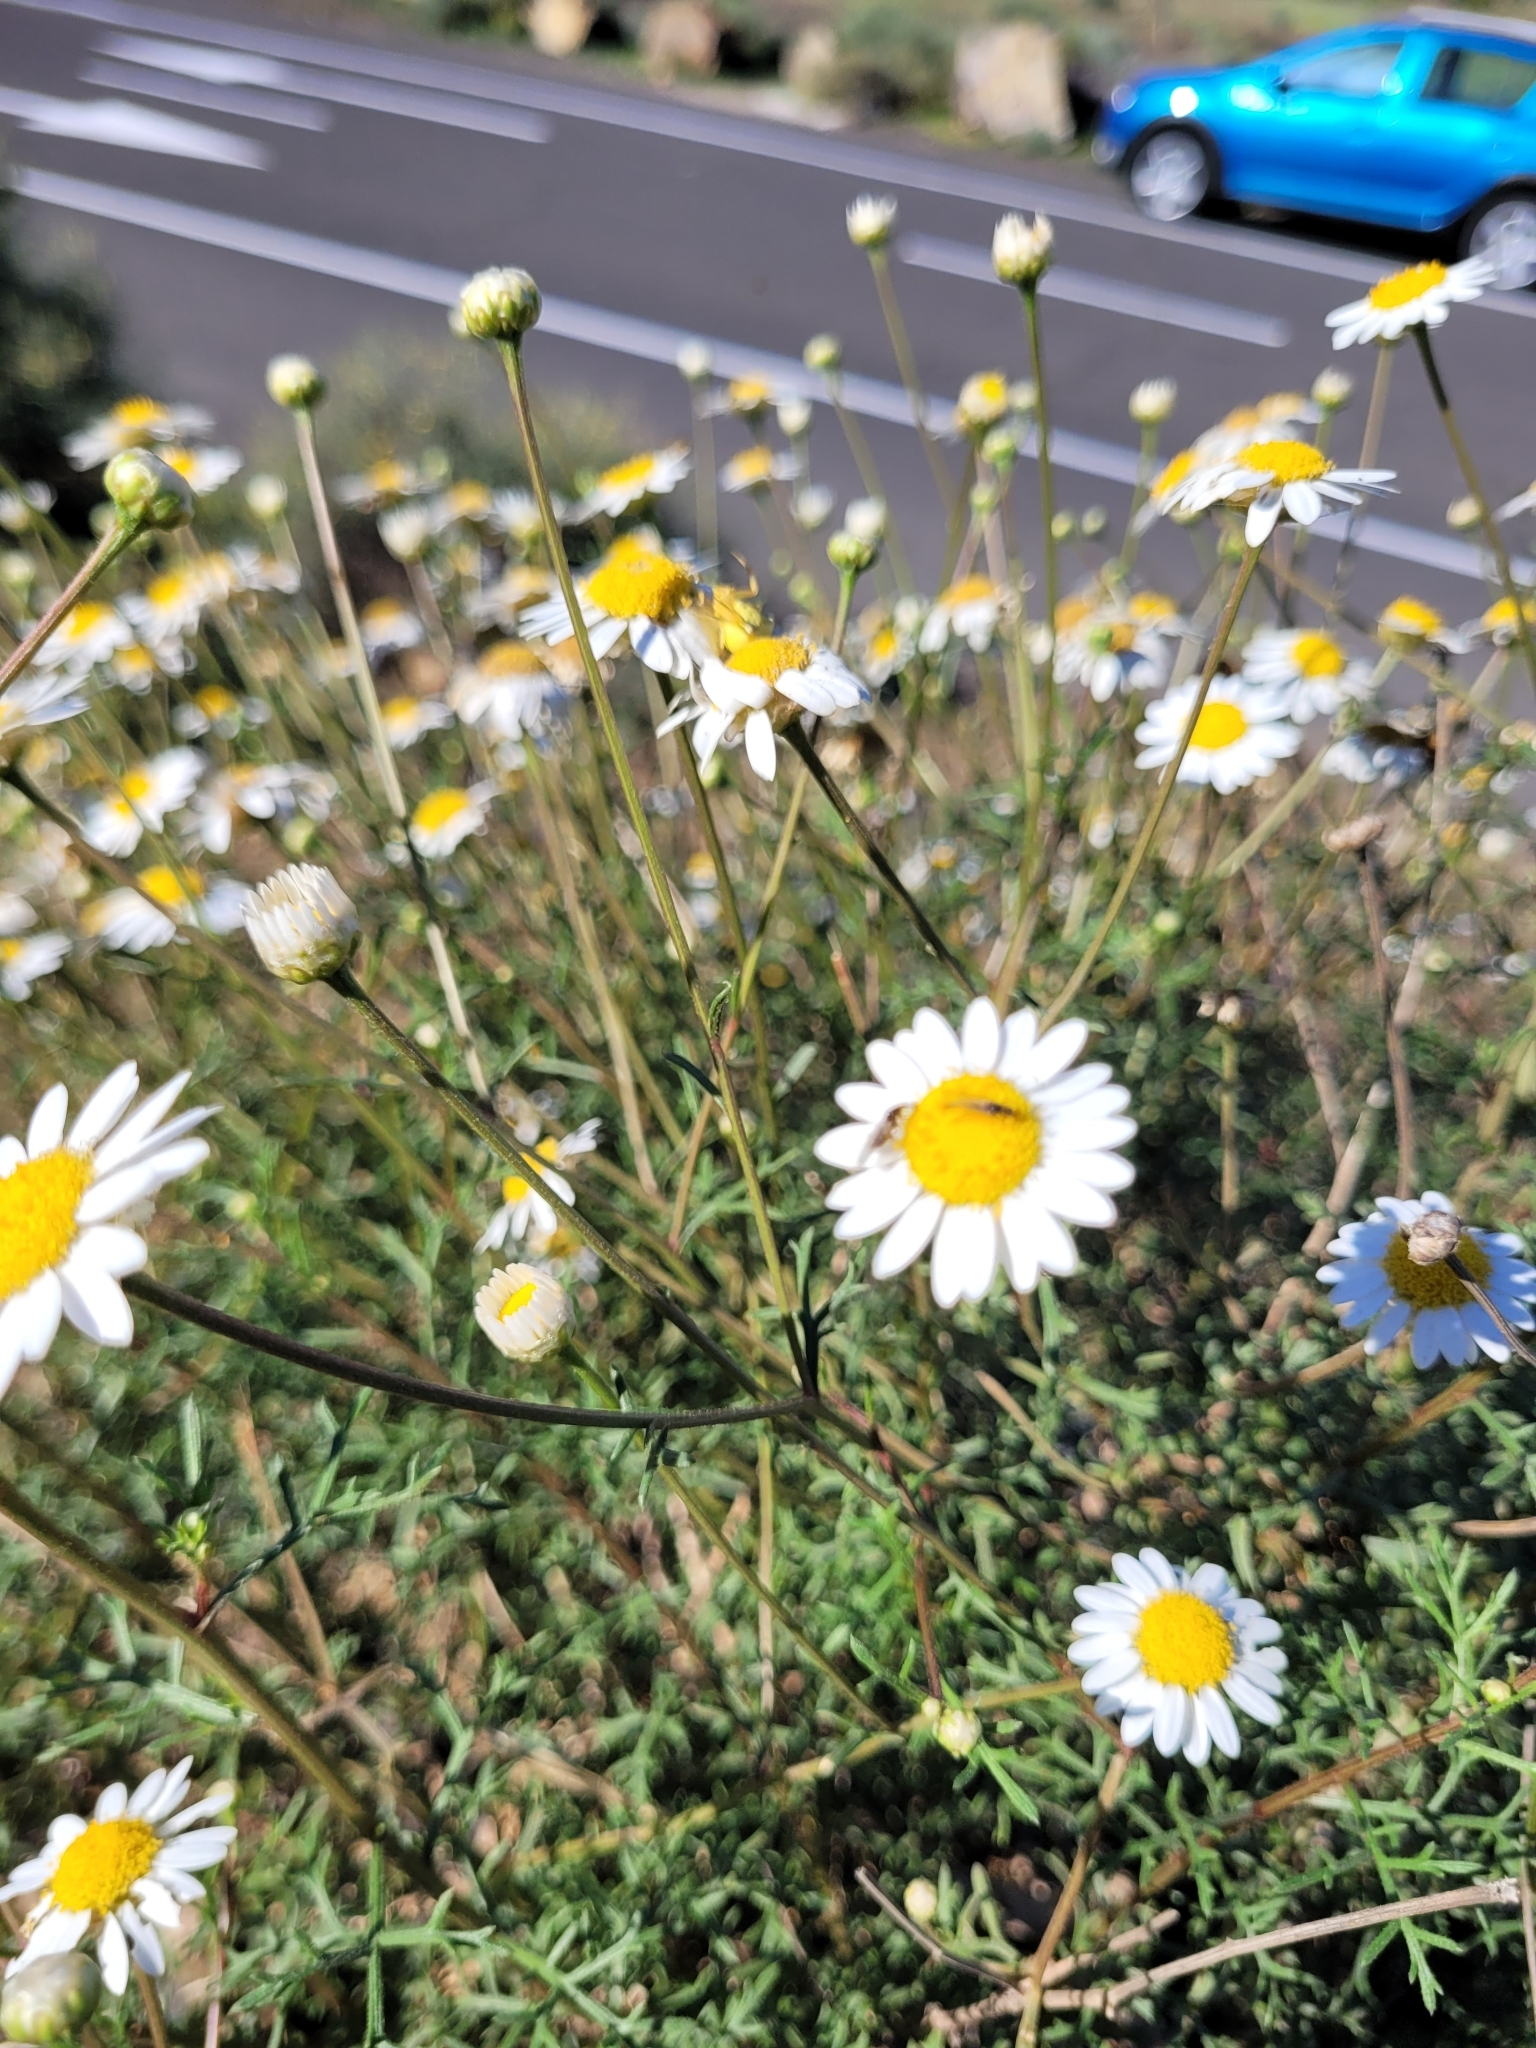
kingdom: Plantae
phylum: Tracheophyta
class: Magnoliopsida
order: Asterales
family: Asteraceae
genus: Argyranthemum
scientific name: Argyranthemum frutescens
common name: Paris daisy
